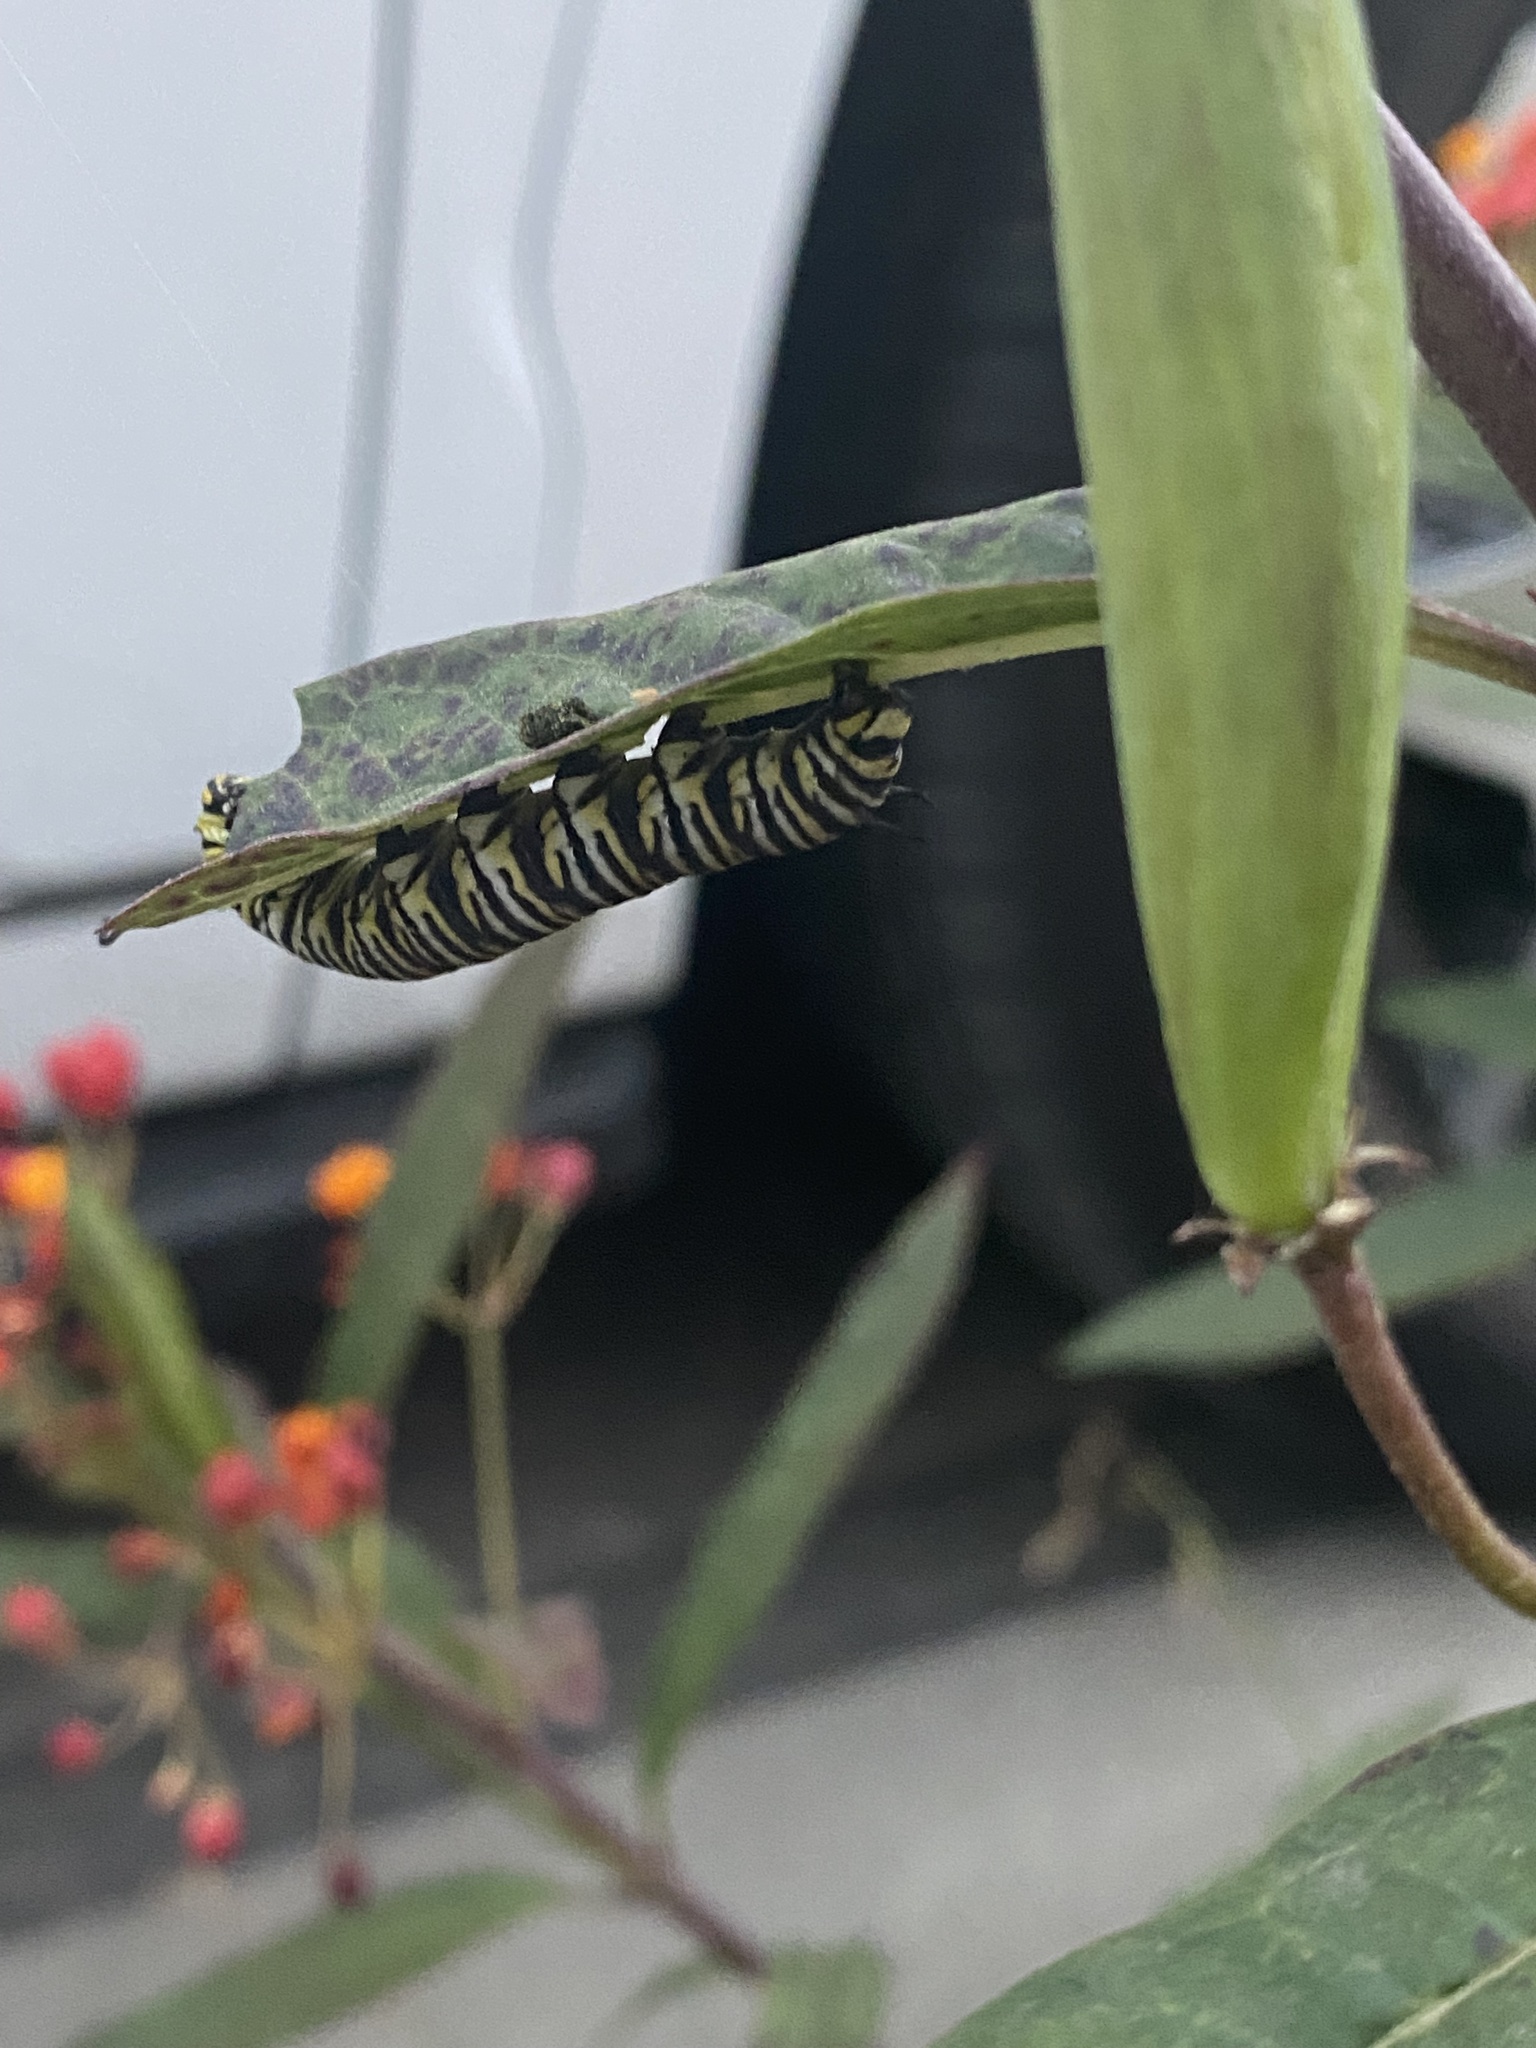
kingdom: Animalia
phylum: Arthropoda
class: Insecta
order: Lepidoptera
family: Nymphalidae
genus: Danaus
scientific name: Danaus plexippus
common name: Monarch
